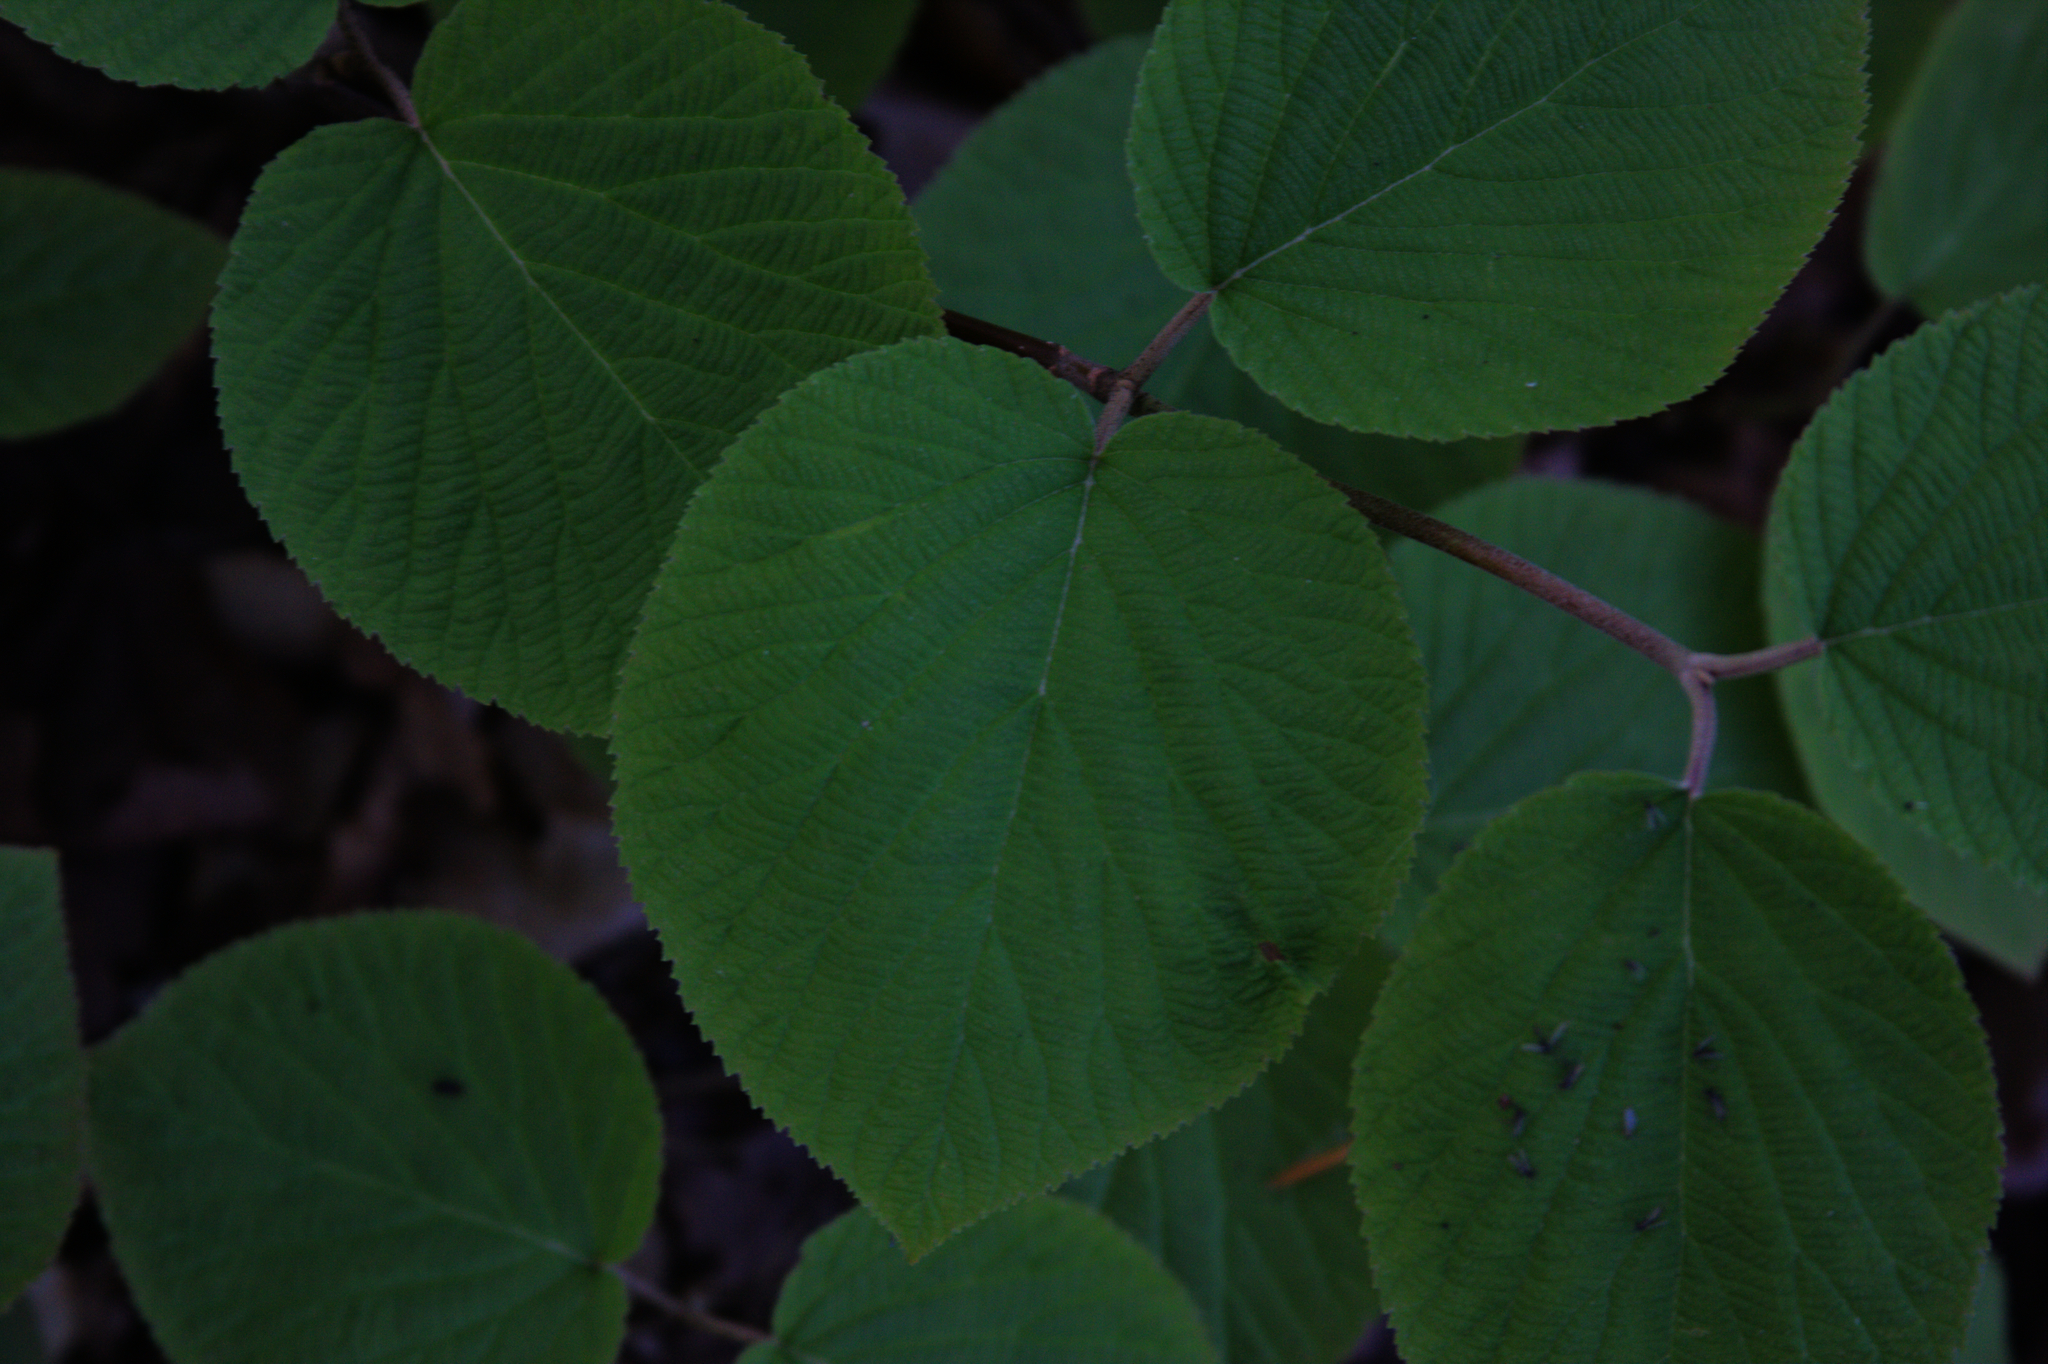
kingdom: Plantae
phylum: Tracheophyta
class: Magnoliopsida
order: Dipsacales
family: Viburnaceae
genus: Viburnum
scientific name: Viburnum lantanoides
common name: Hobblebush
